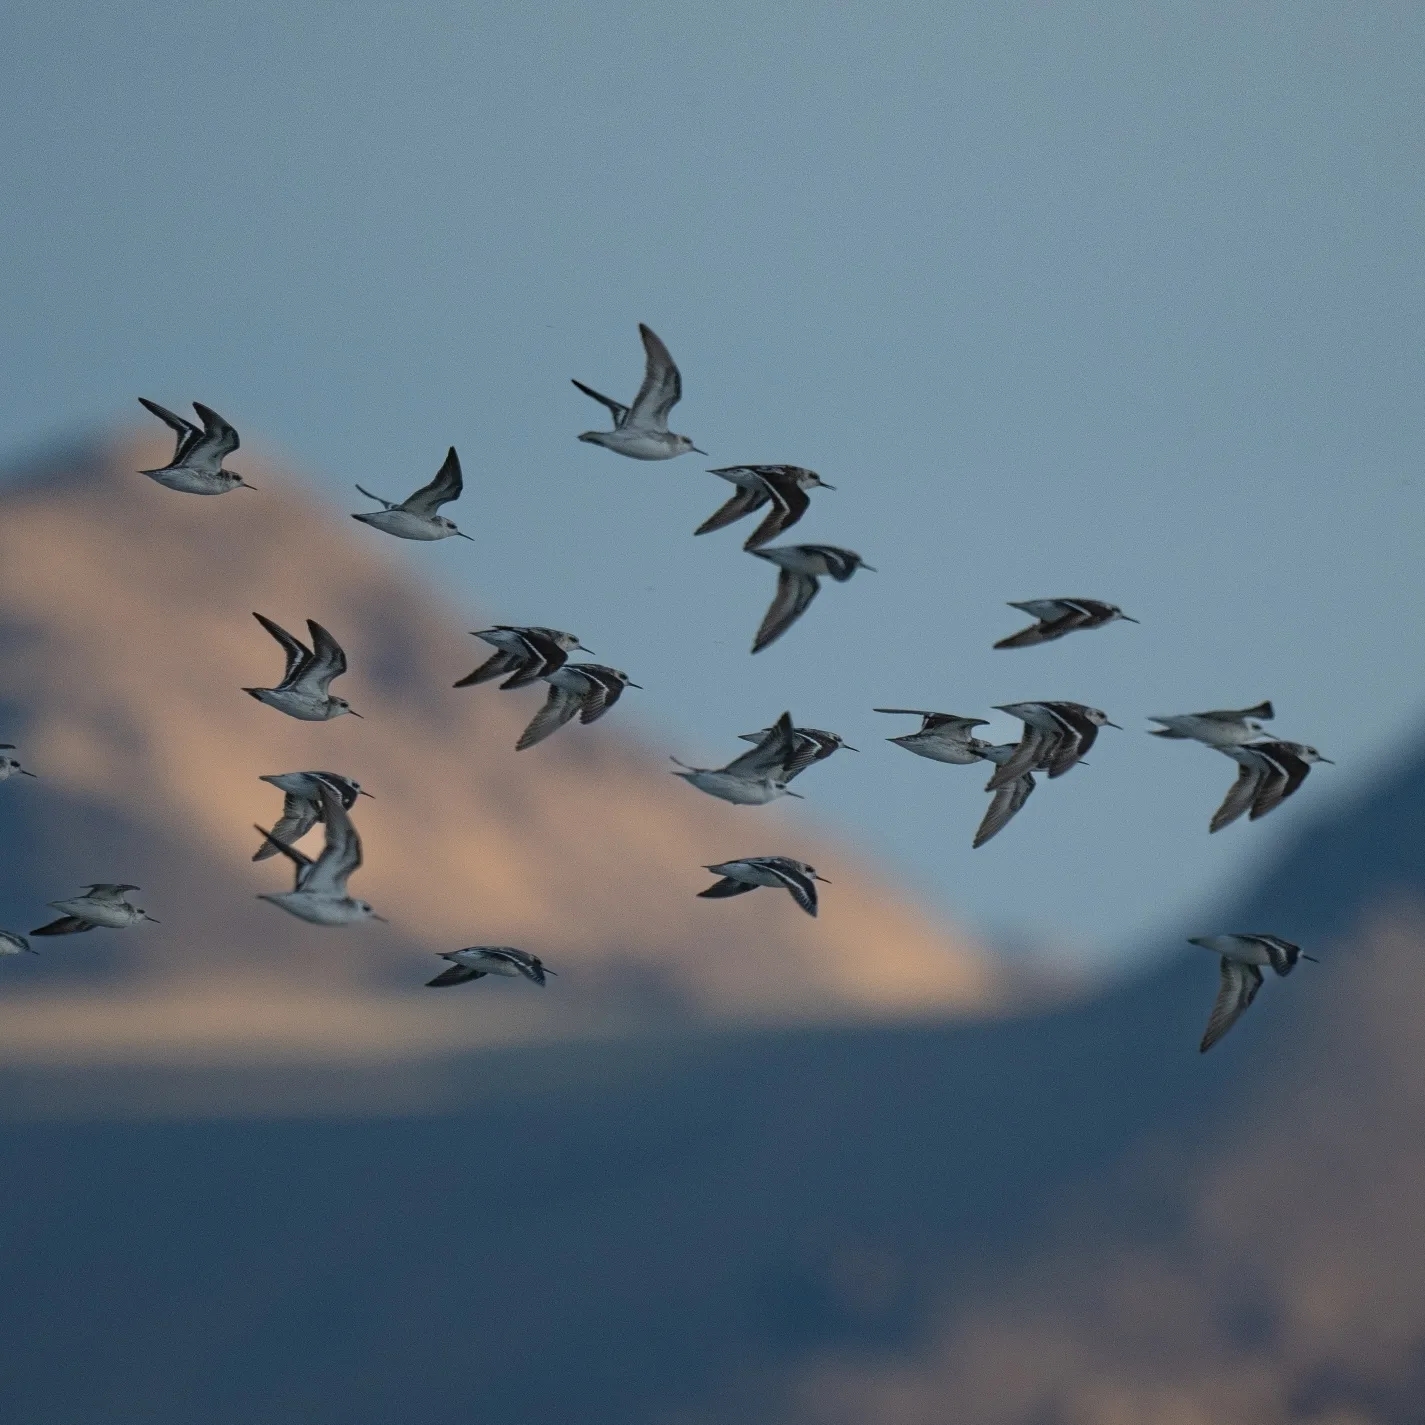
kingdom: Animalia
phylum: Chordata
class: Aves
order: Charadriiformes
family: Scolopacidae
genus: Phalaropus
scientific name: Phalaropus lobatus
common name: Red-necked phalarope
